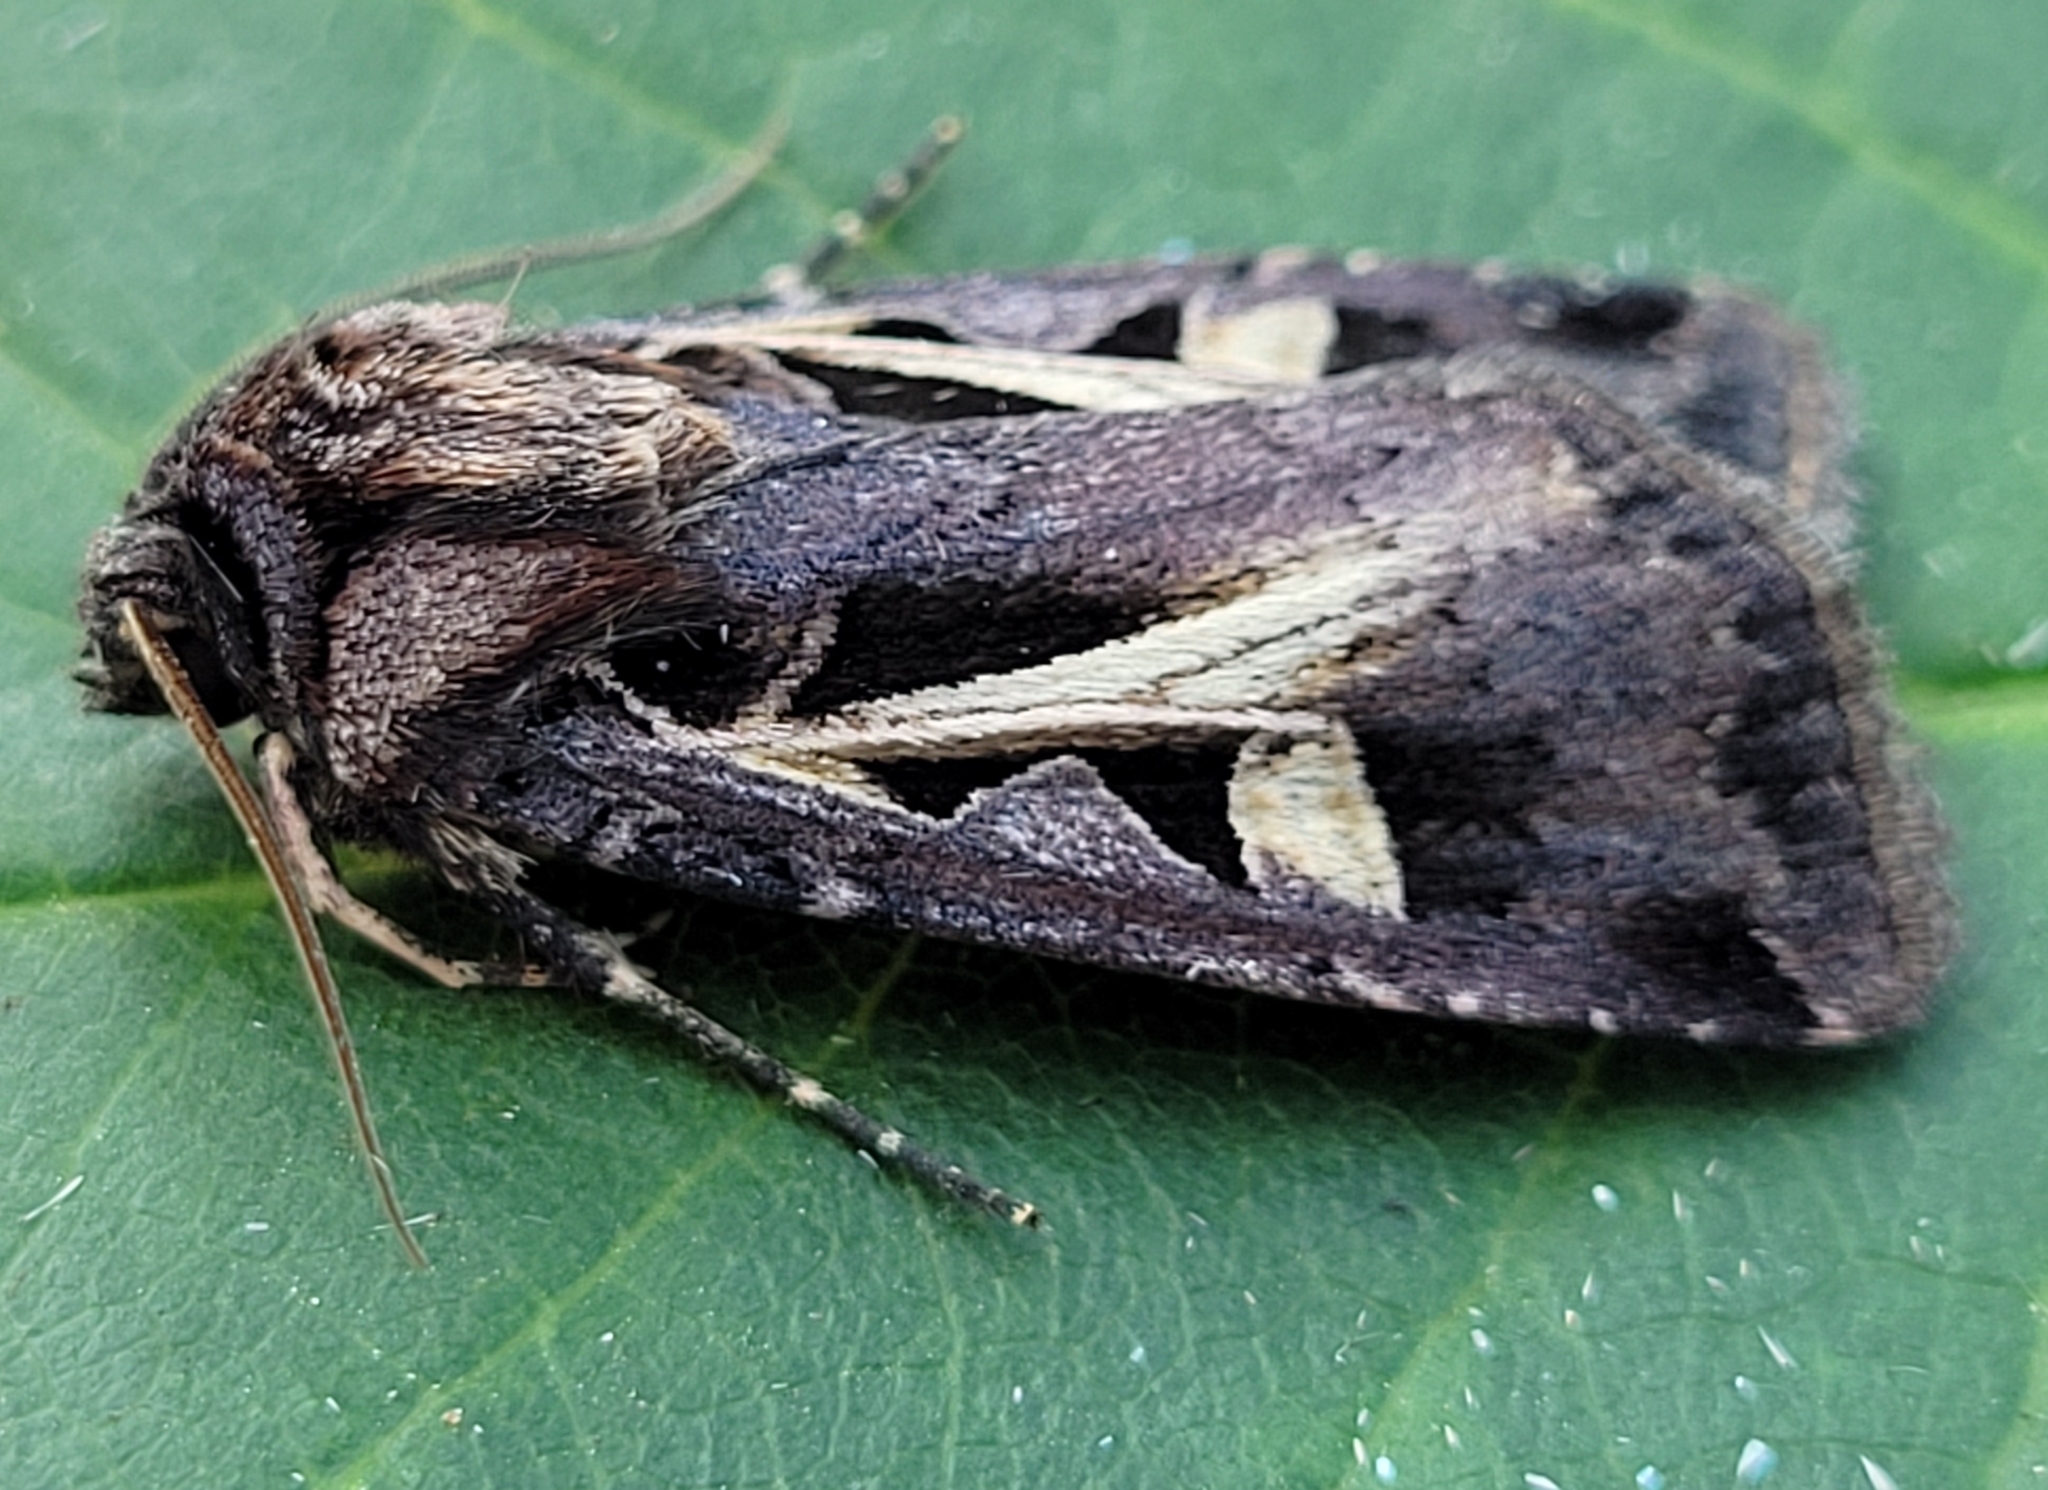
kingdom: Animalia
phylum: Arthropoda
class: Insecta
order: Lepidoptera
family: Noctuidae
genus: Feltia
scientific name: Feltia herilis
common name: Master's dart
